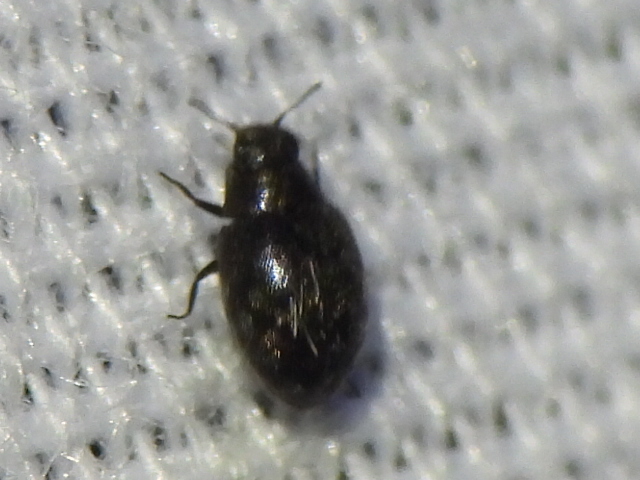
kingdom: Animalia
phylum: Arthropoda
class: Insecta
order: Coleoptera
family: Limnichidae
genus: Eulimnichus
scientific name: Eulimnichus ater
